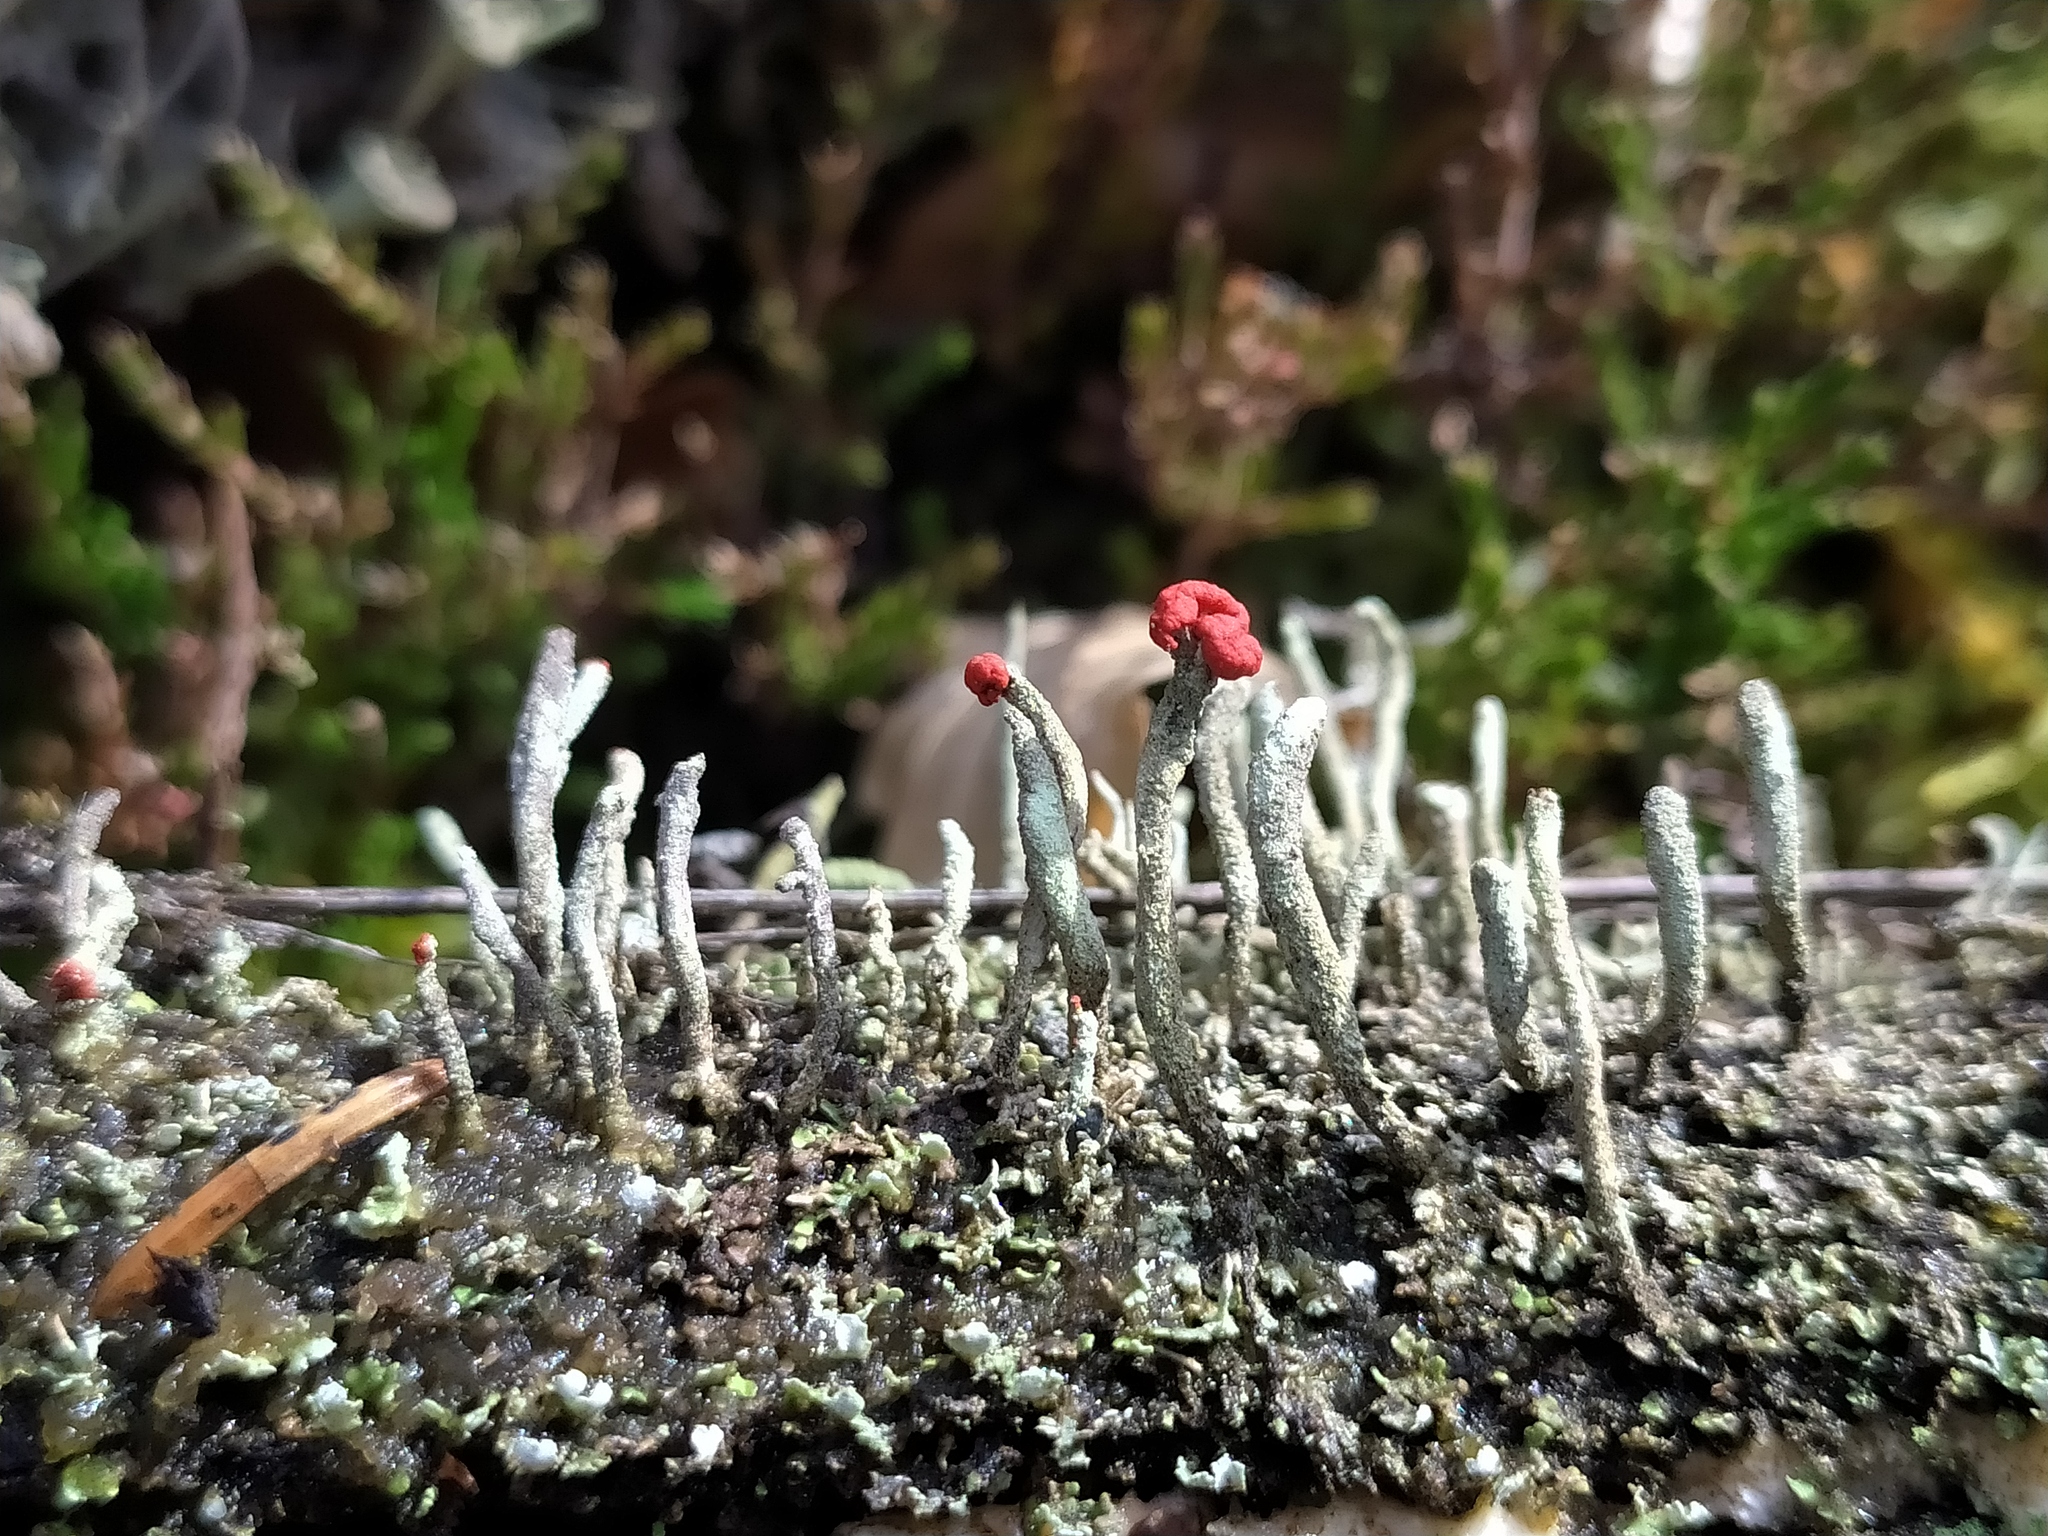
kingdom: Fungi
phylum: Ascomycota
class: Lecanoromycetes
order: Lecanorales
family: Cladoniaceae
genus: Cladonia
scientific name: Cladonia macilenta
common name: Lipstick powderhorn
